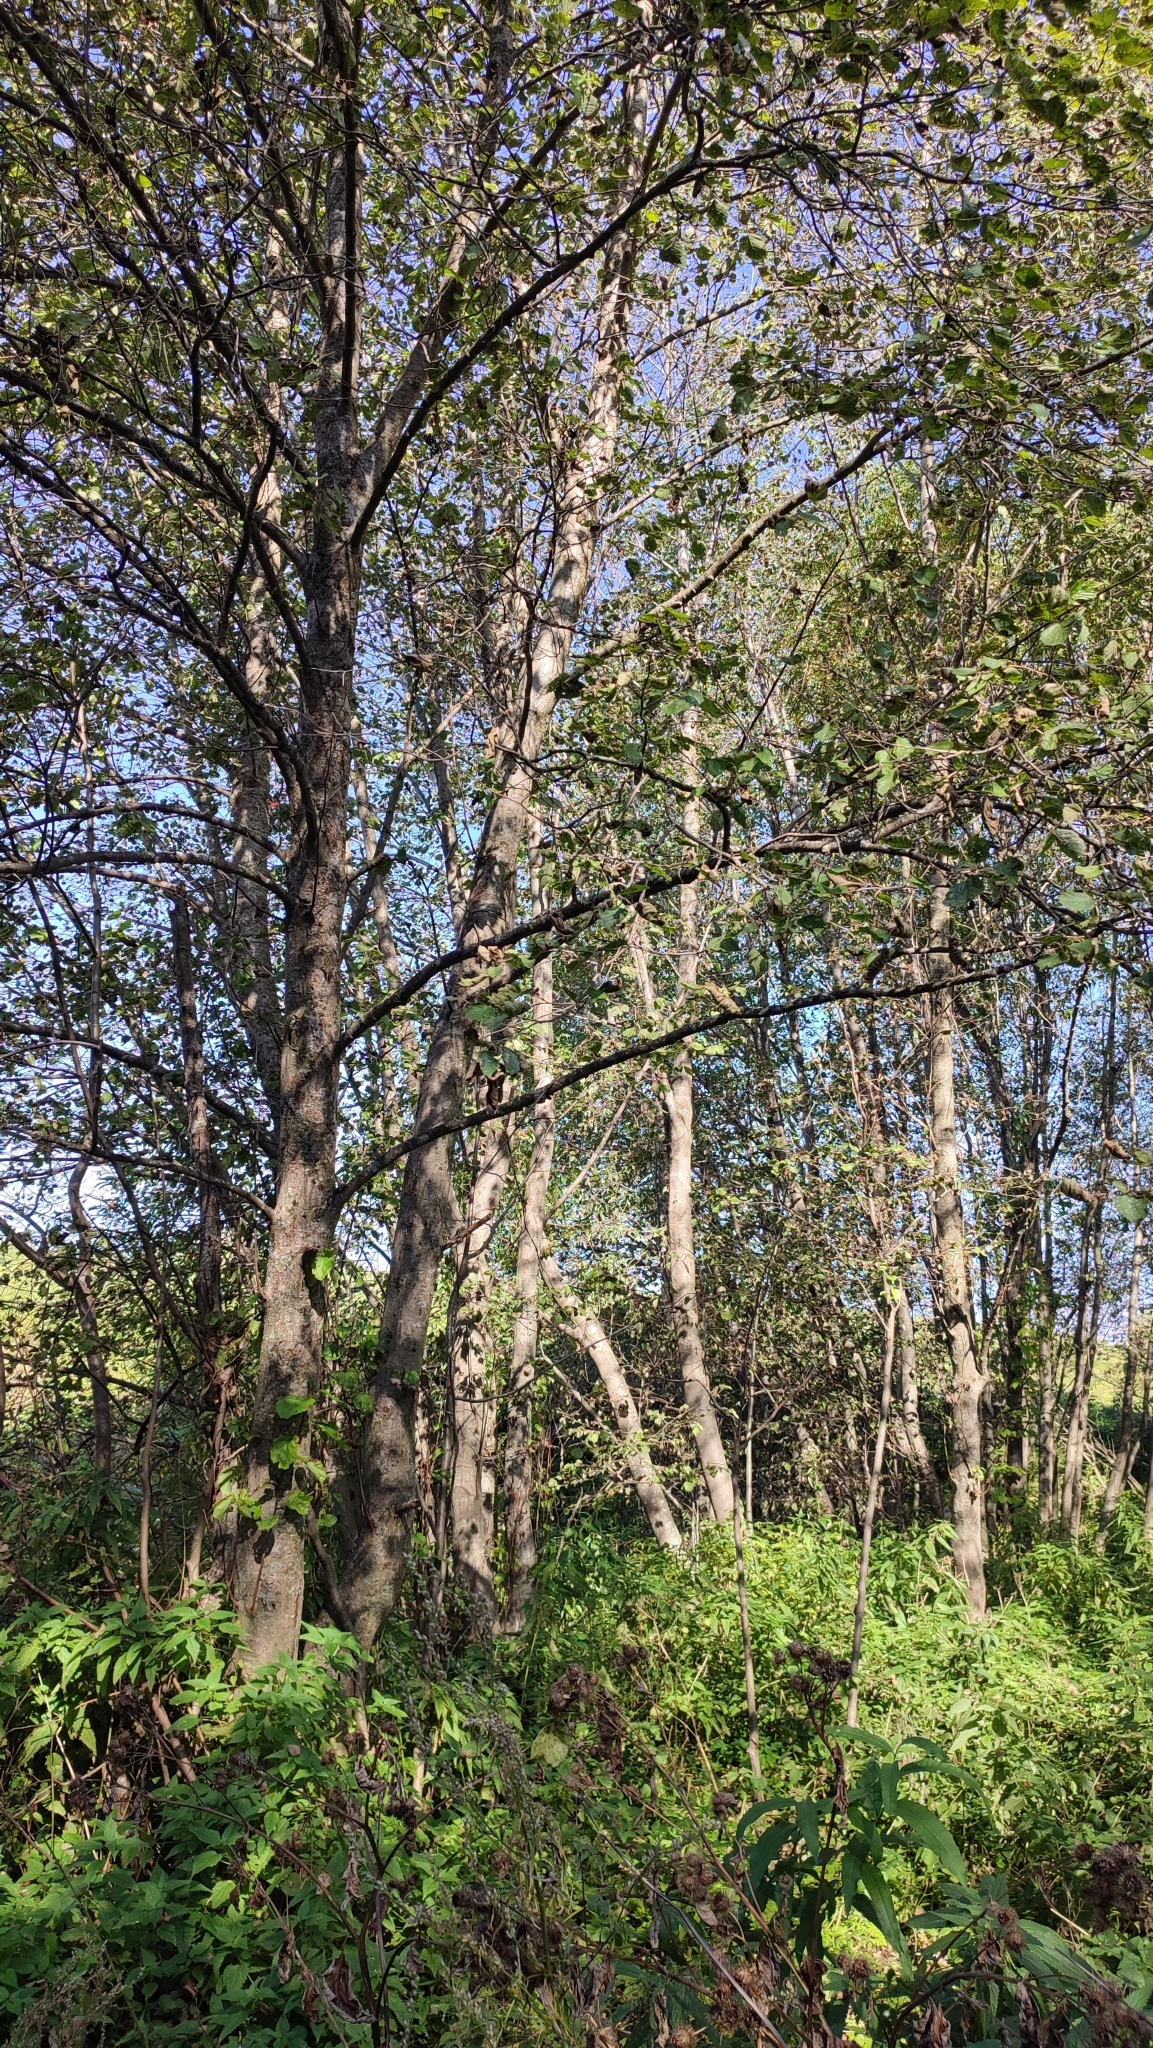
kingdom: Plantae
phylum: Tracheophyta
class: Magnoliopsida
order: Fagales
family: Betulaceae
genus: Alnus
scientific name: Alnus incana
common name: Grey alder
